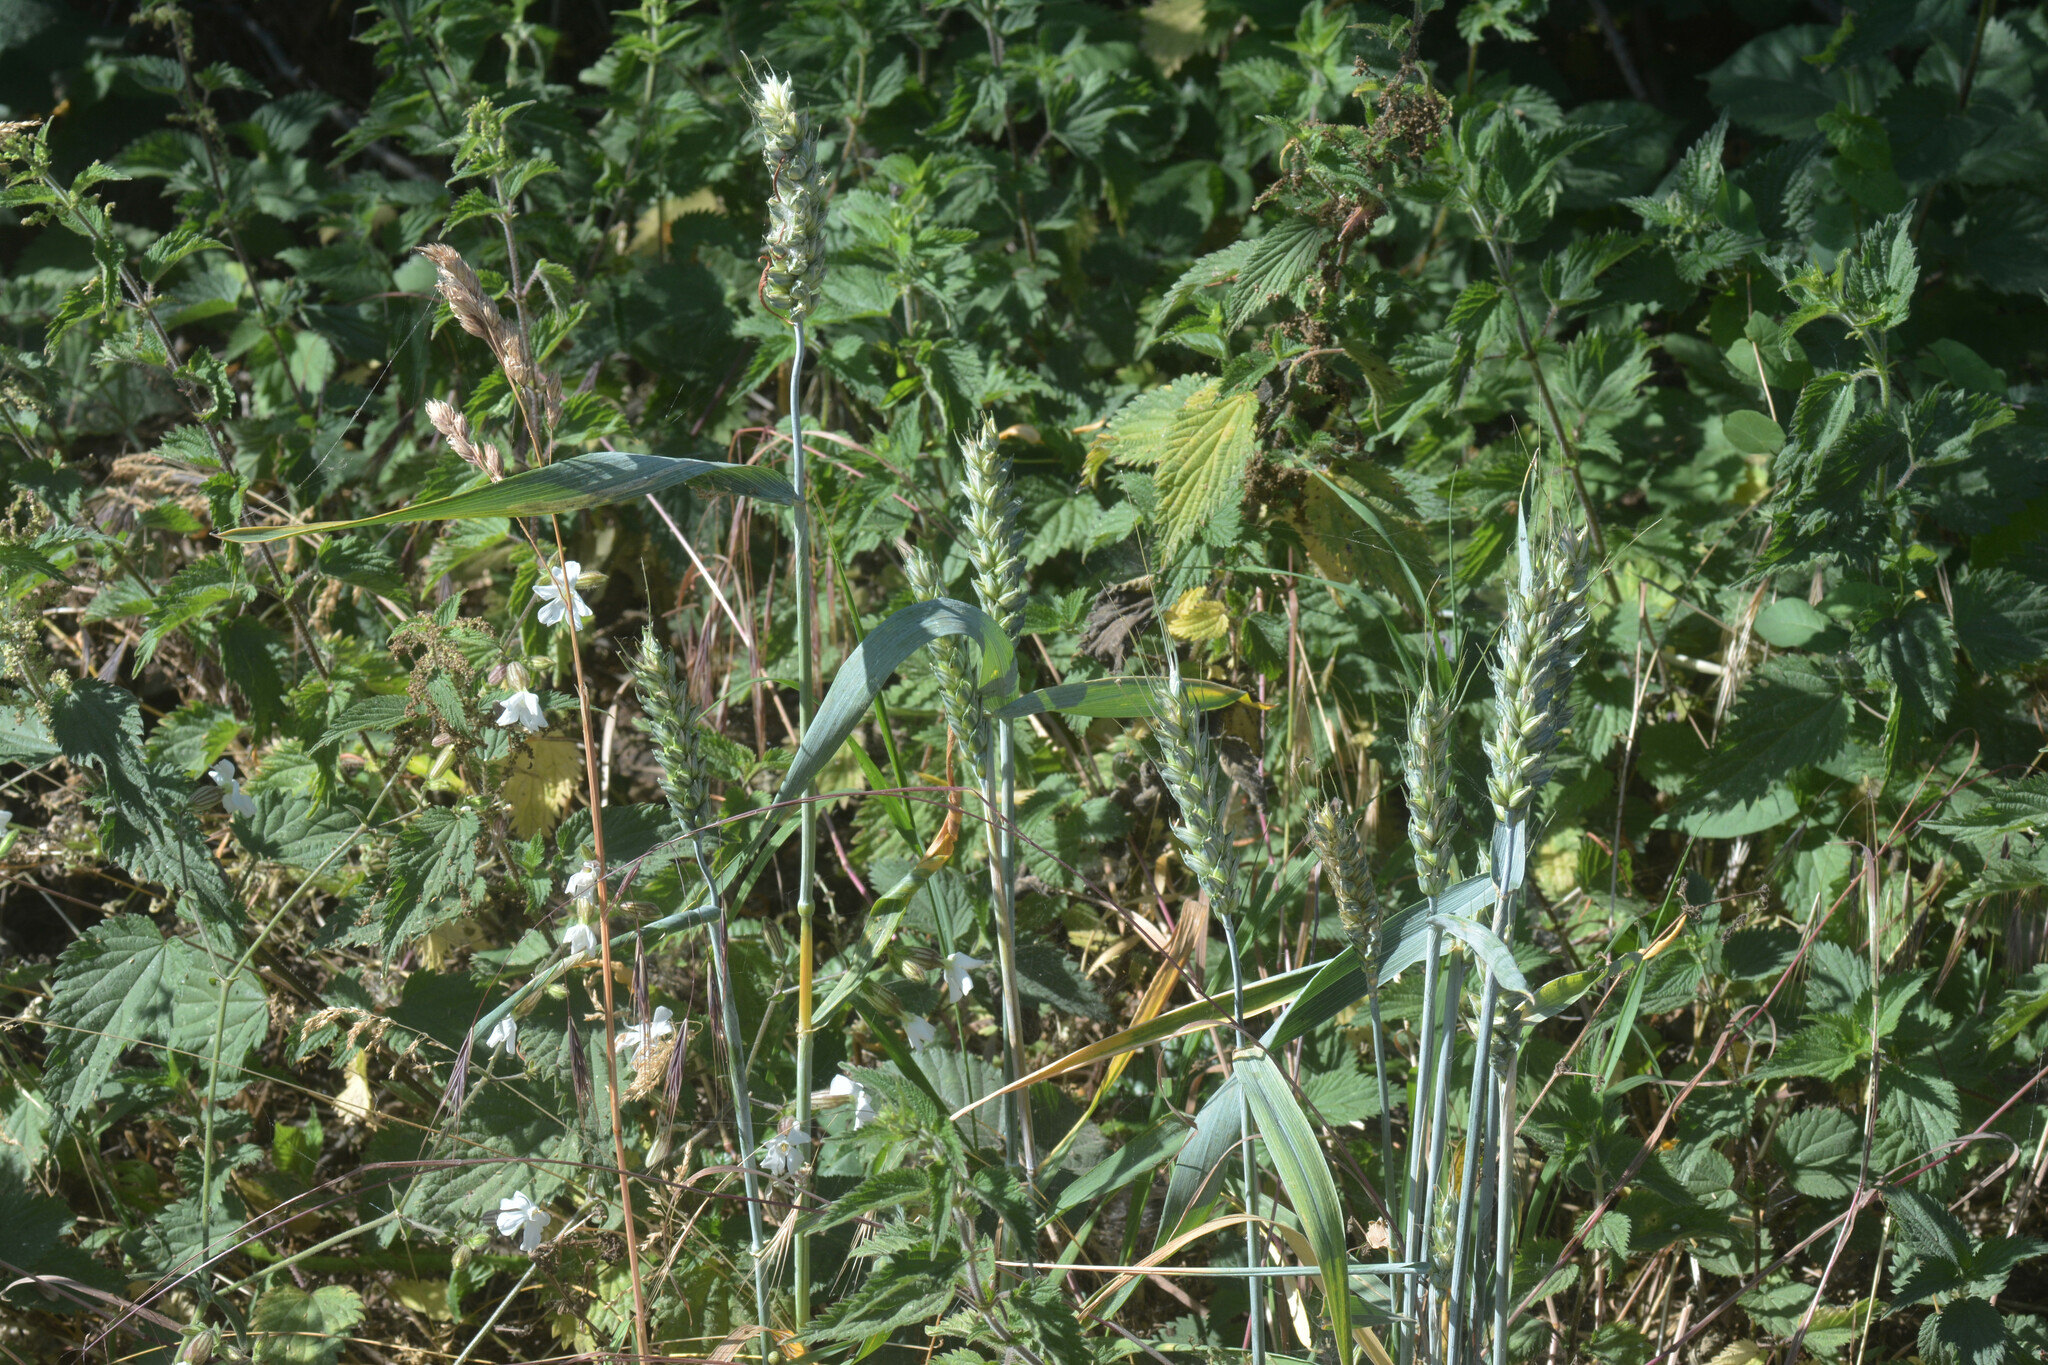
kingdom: Plantae
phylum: Tracheophyta
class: Liliopsida
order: Poales
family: Poaceae
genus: Triticum
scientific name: Triticum aestivum
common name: Common wheat
